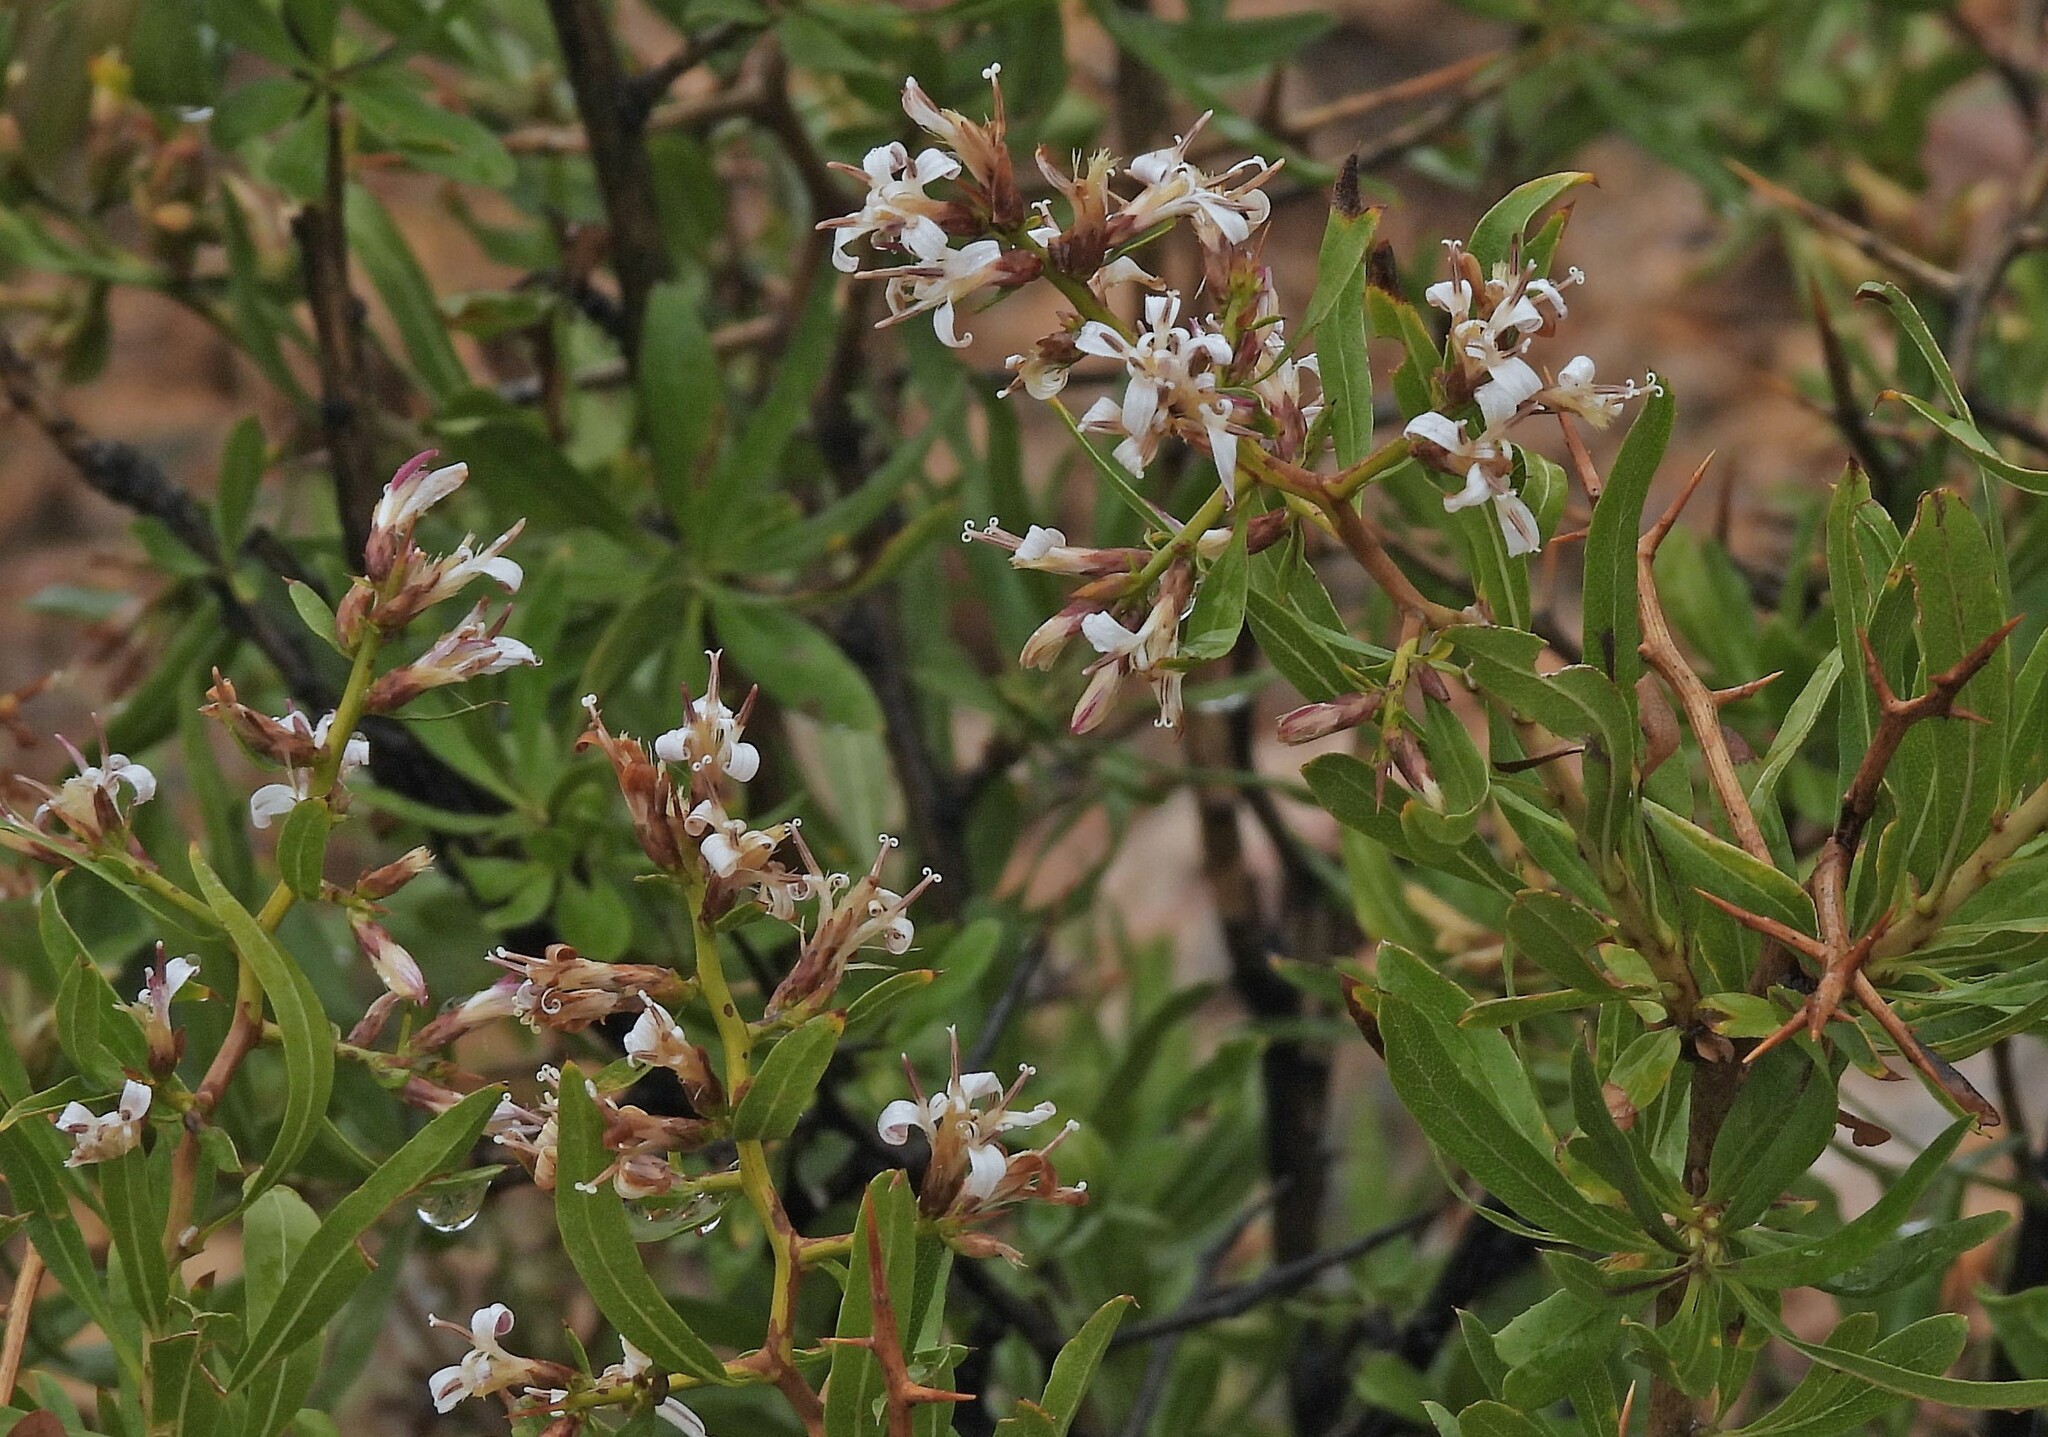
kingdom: Plantae
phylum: Tracheophyta
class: Magnoliopsida
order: Asterales
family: Asteraceae
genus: Proustia
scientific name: Proustia cuneifolia
